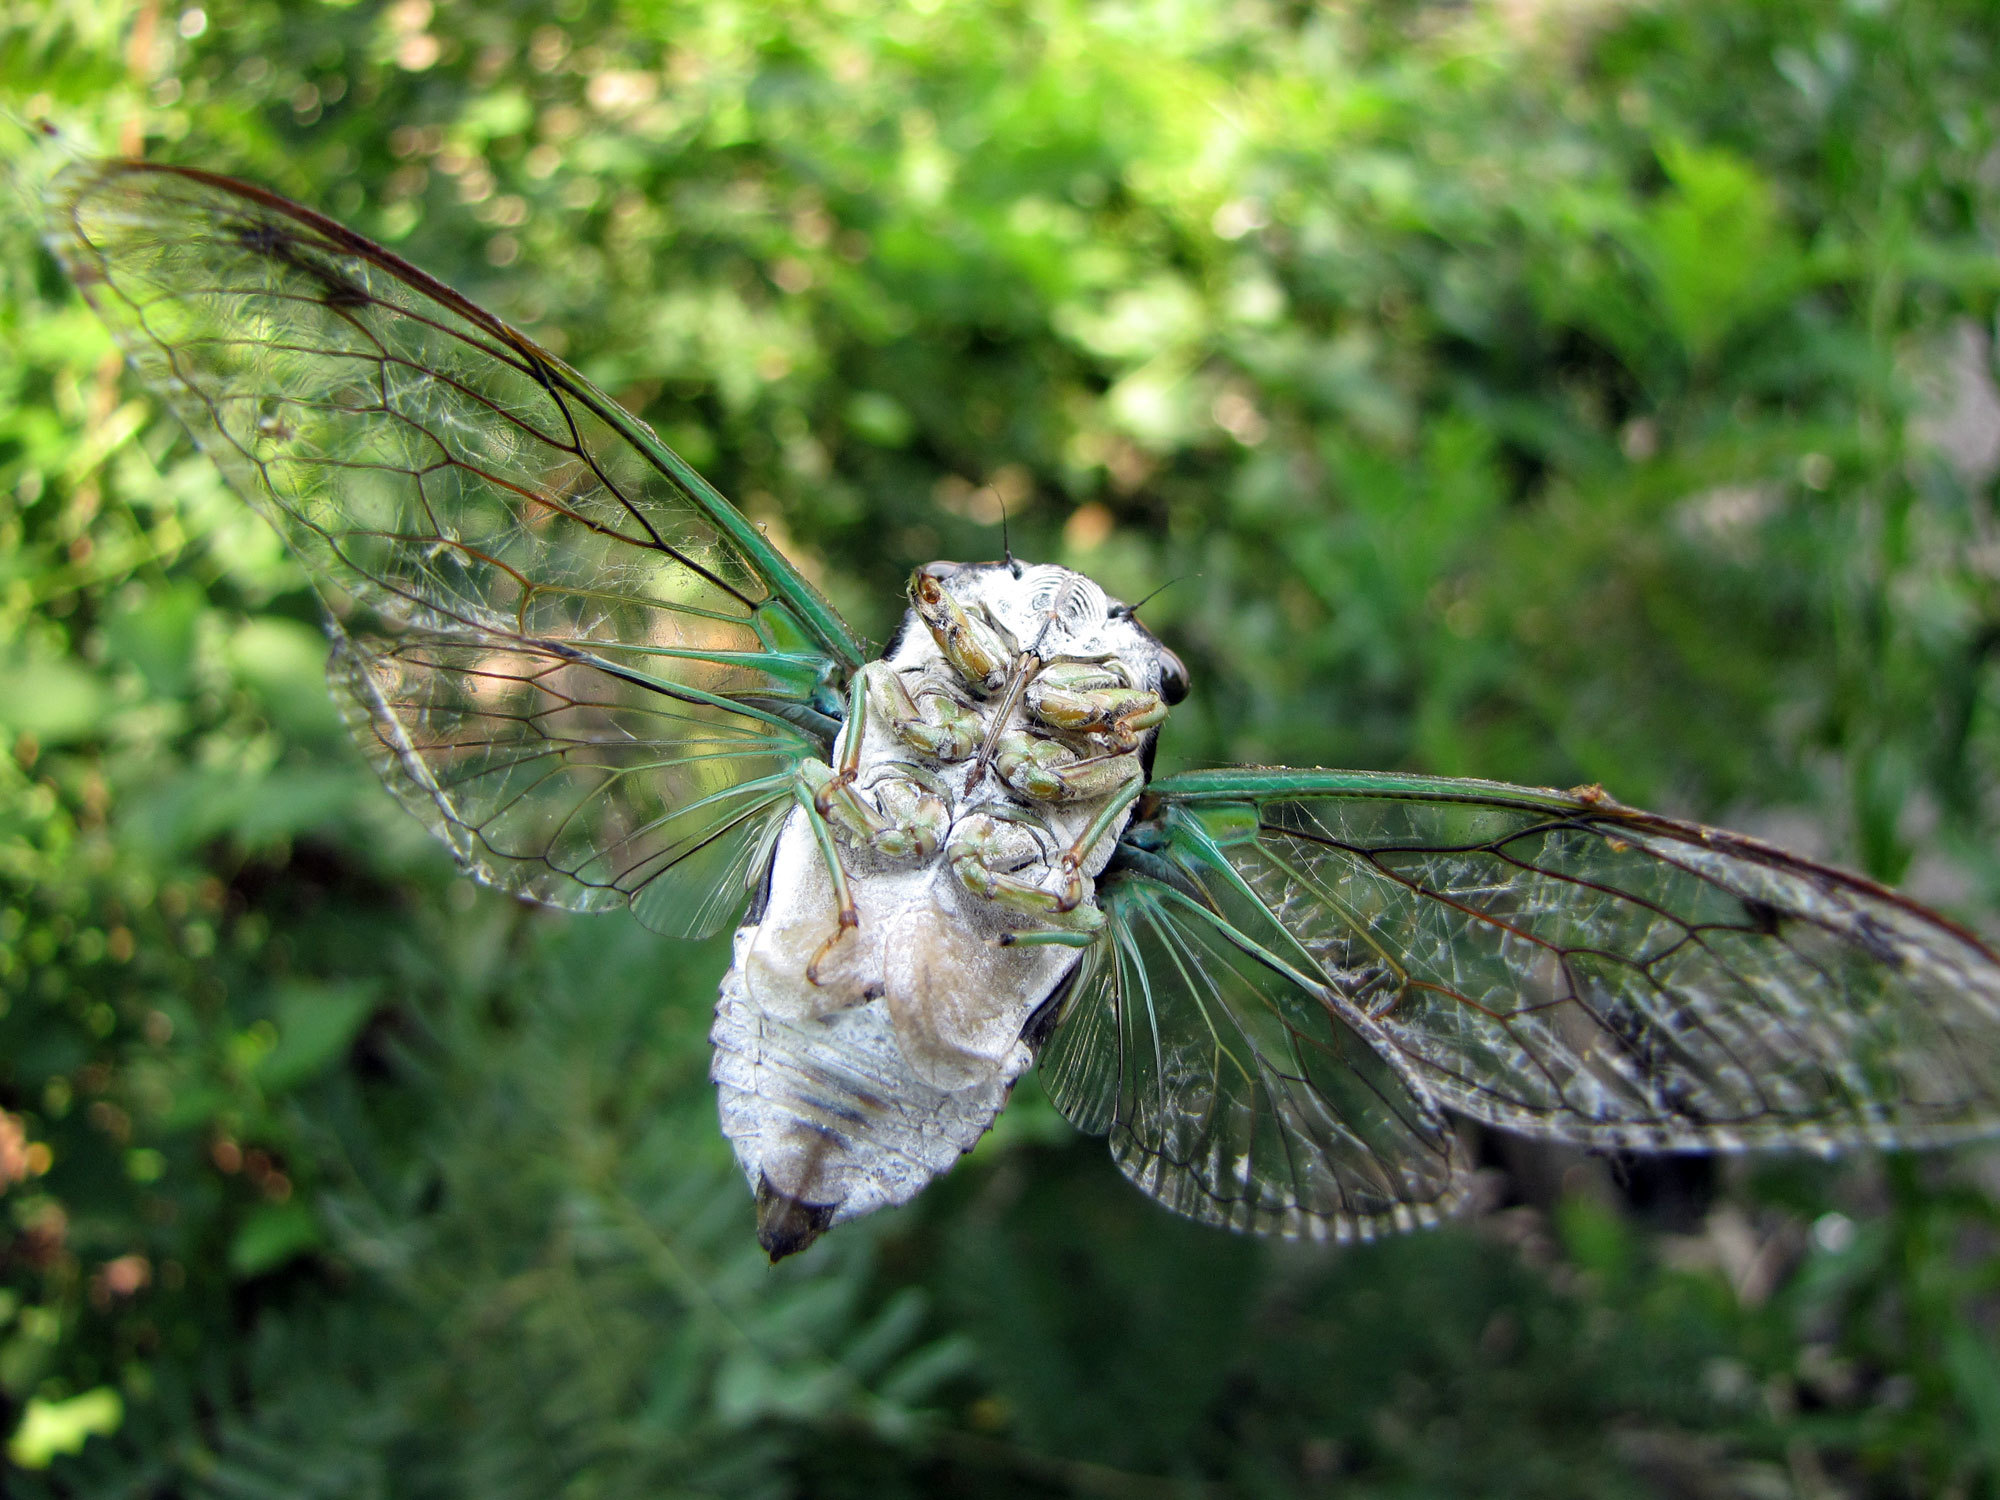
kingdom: Animalia
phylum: Arthropoda
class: Insecta
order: Hemiptera
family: Cicadidae
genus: Neotibicen
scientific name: Neotibicen tibicen
